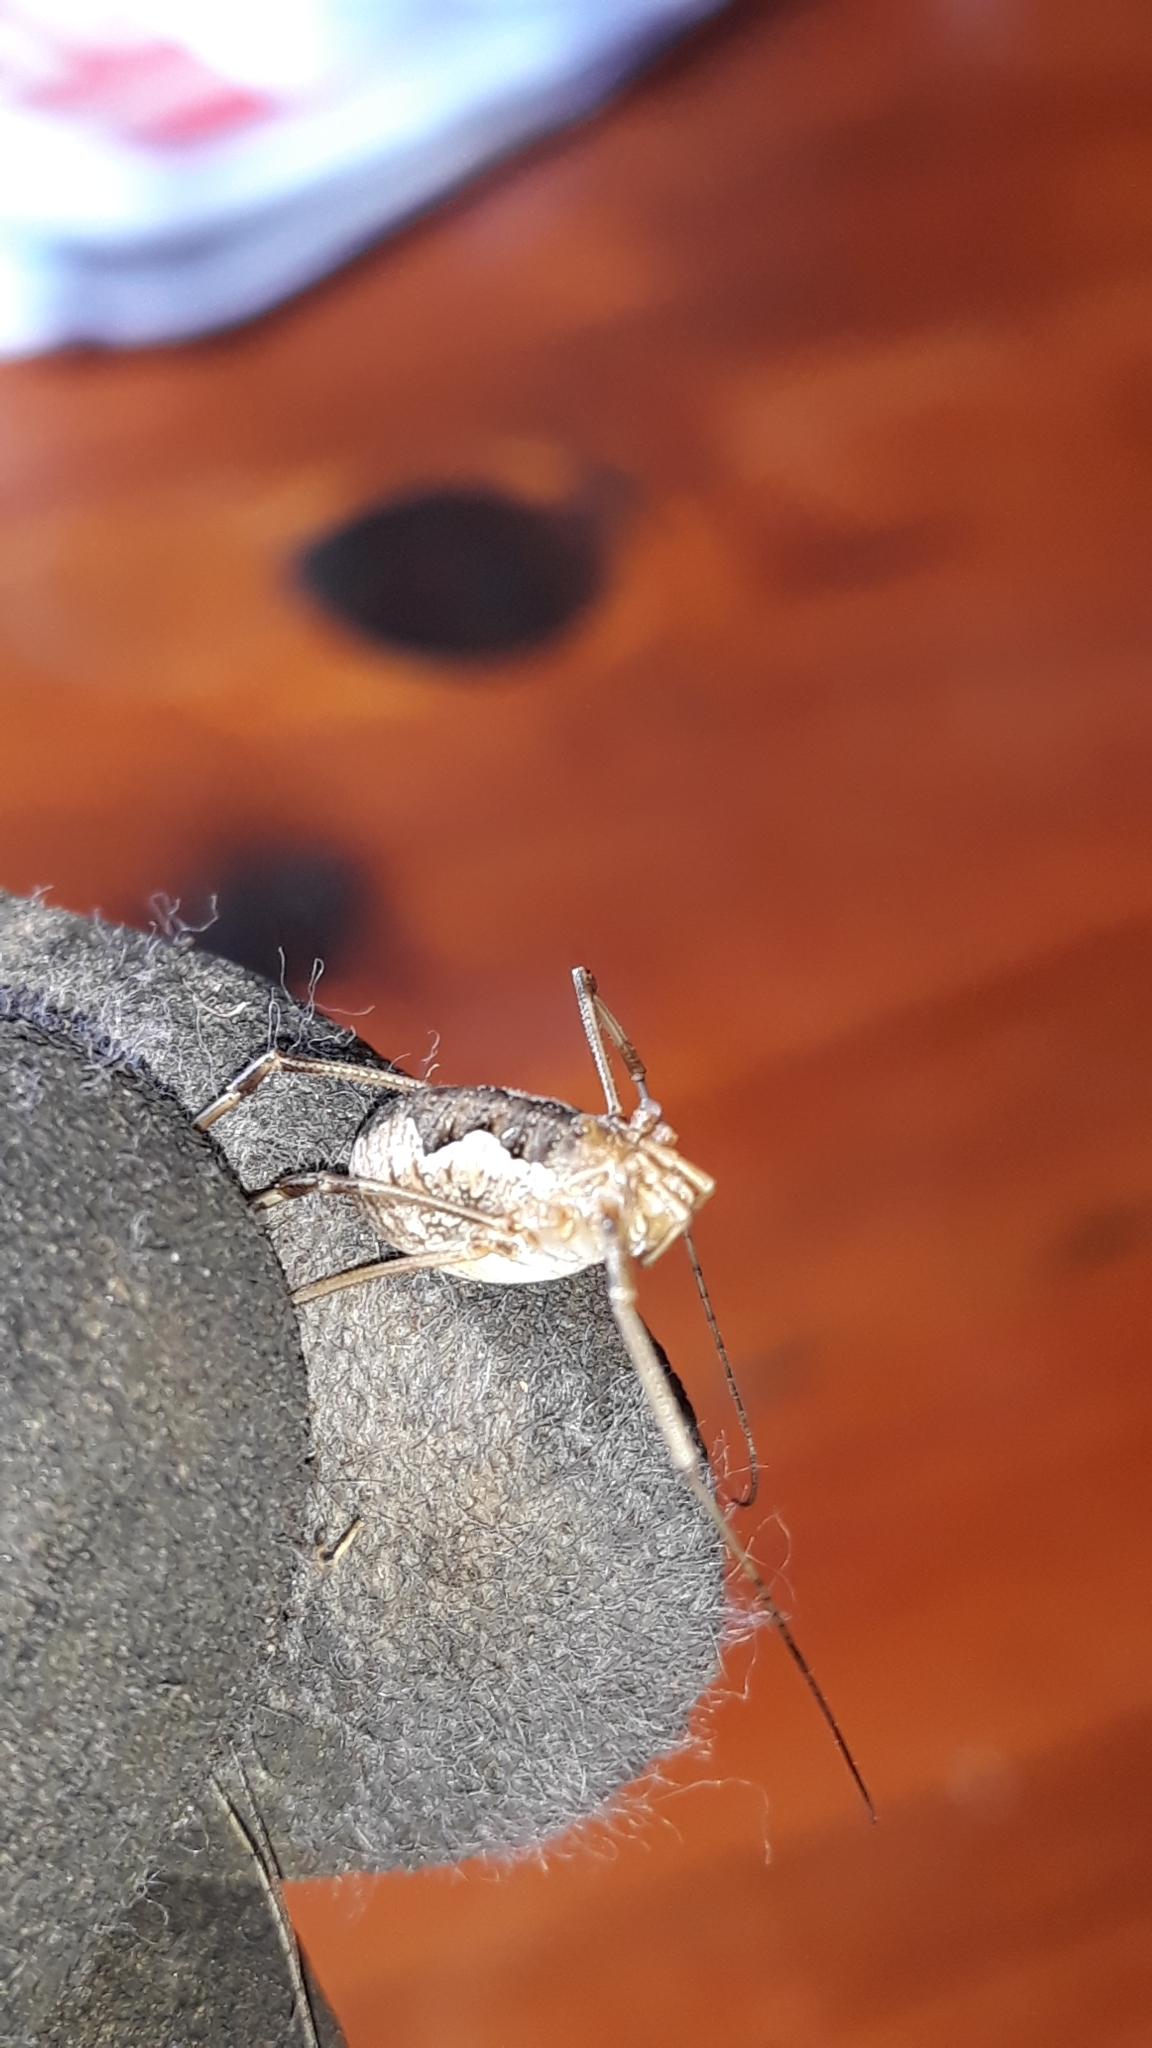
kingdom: Animalia
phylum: Arthropoda
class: Arachnida
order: Opiliones
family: Phalangiidae
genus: Phalangium
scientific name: Phalangium opilio
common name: Daddy longleg
